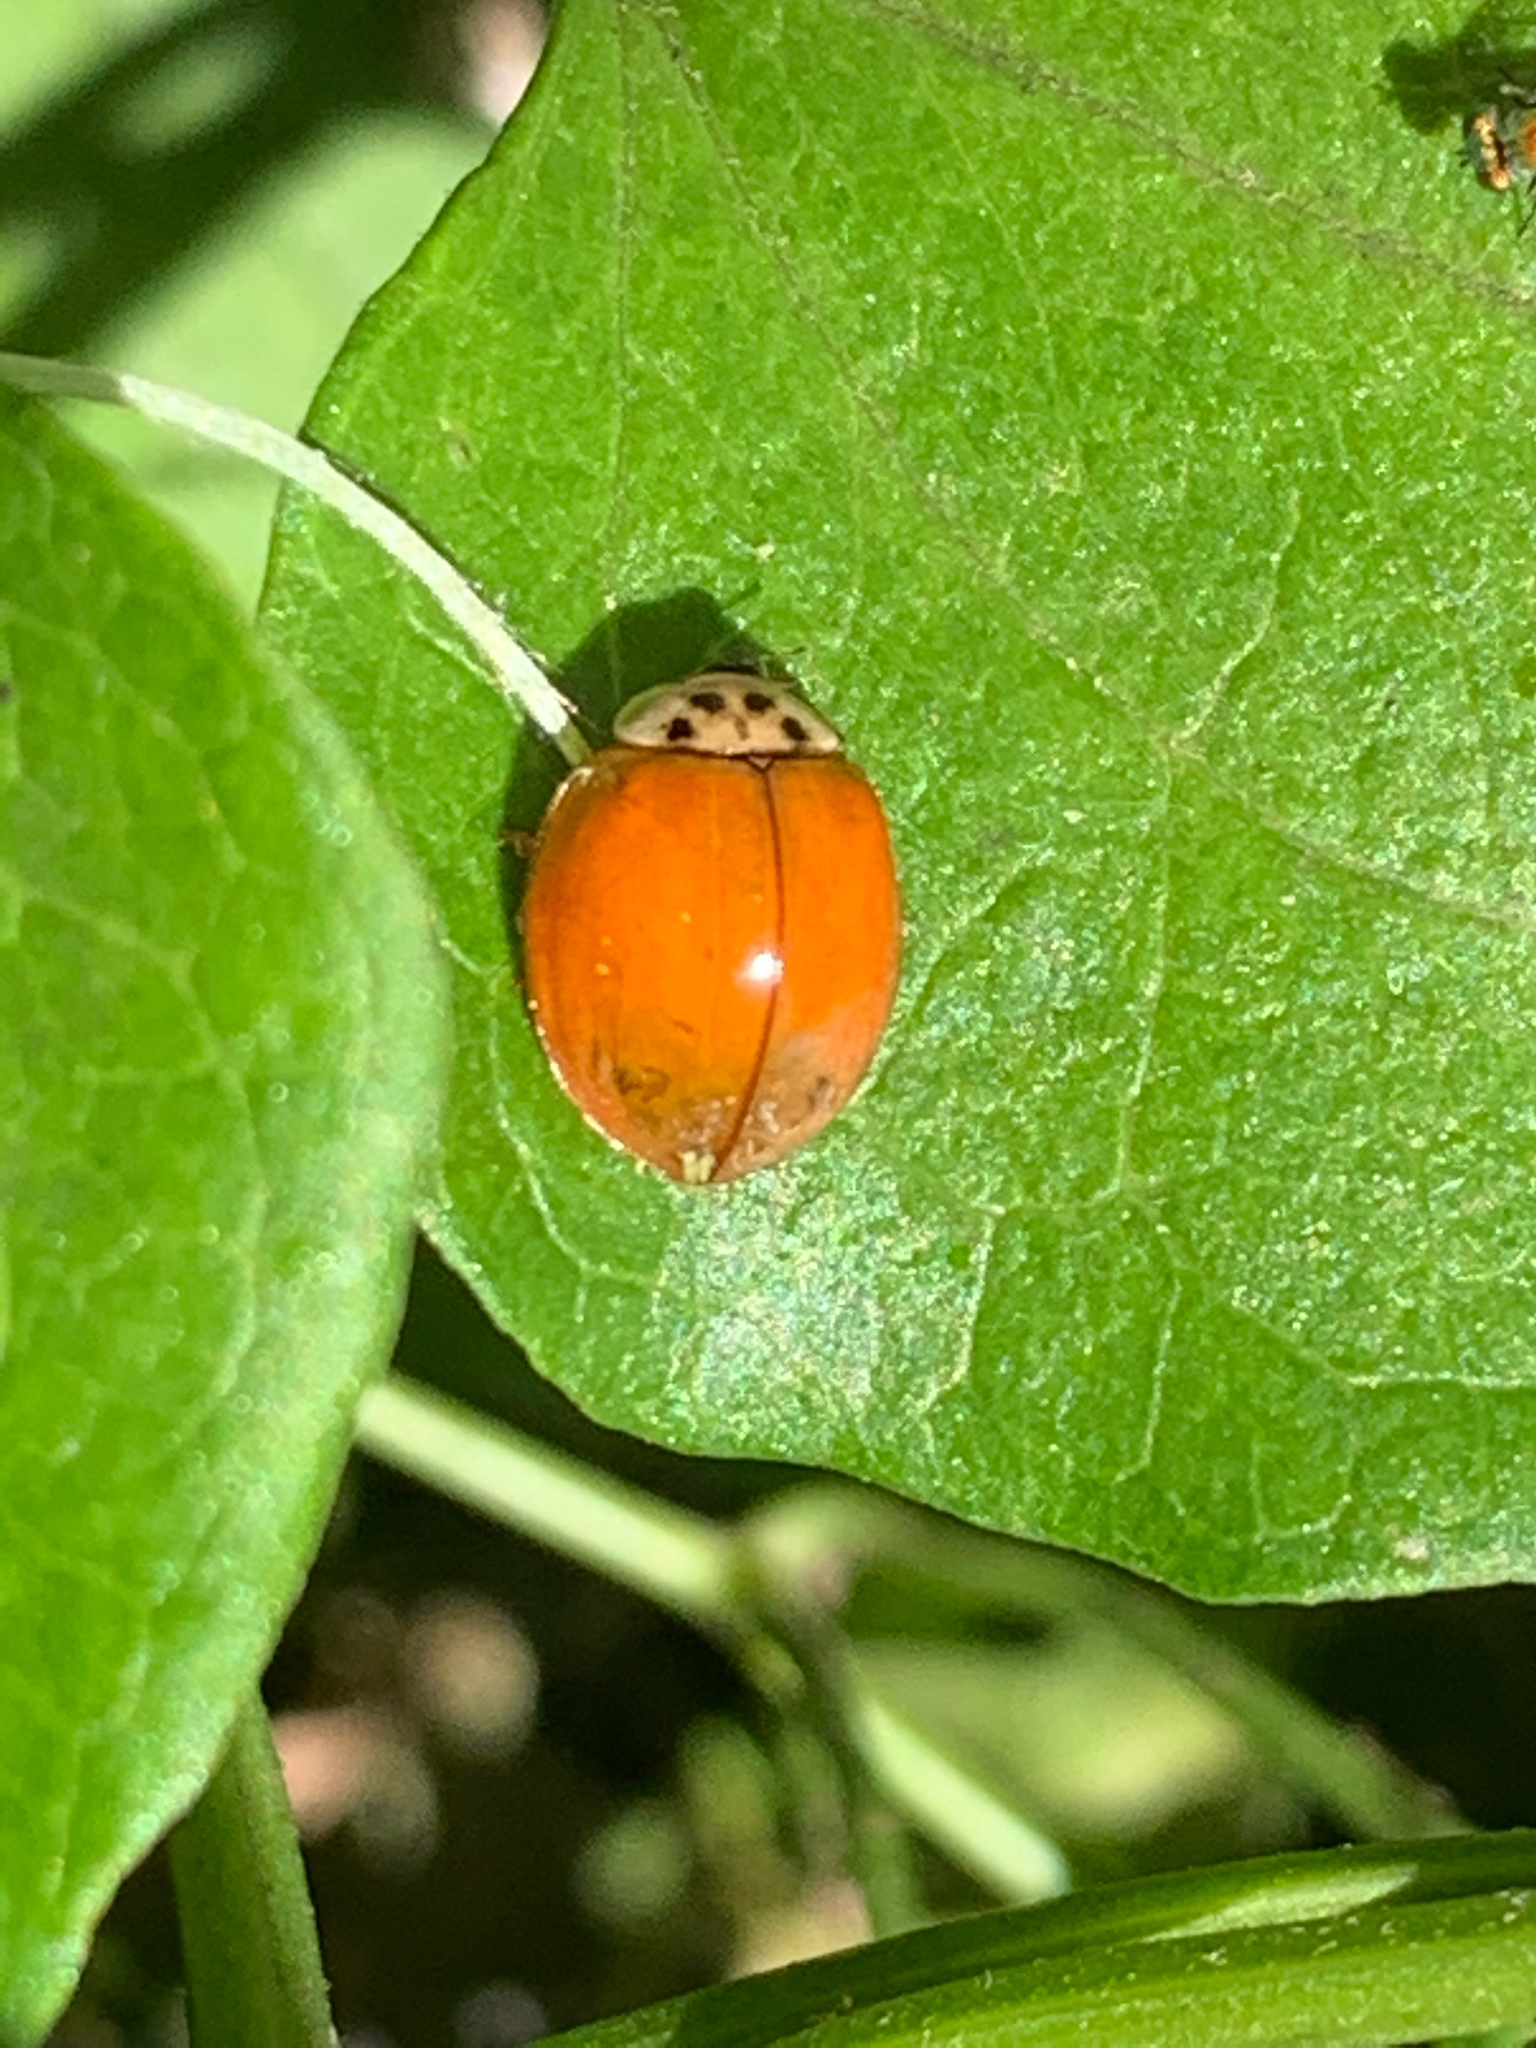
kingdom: Animalia
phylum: Arthropoda
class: Insecta
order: Coleoptera
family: Coccinellidae
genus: Harmonia
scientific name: Harmonia axyridis
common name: Harlequin ladybird
